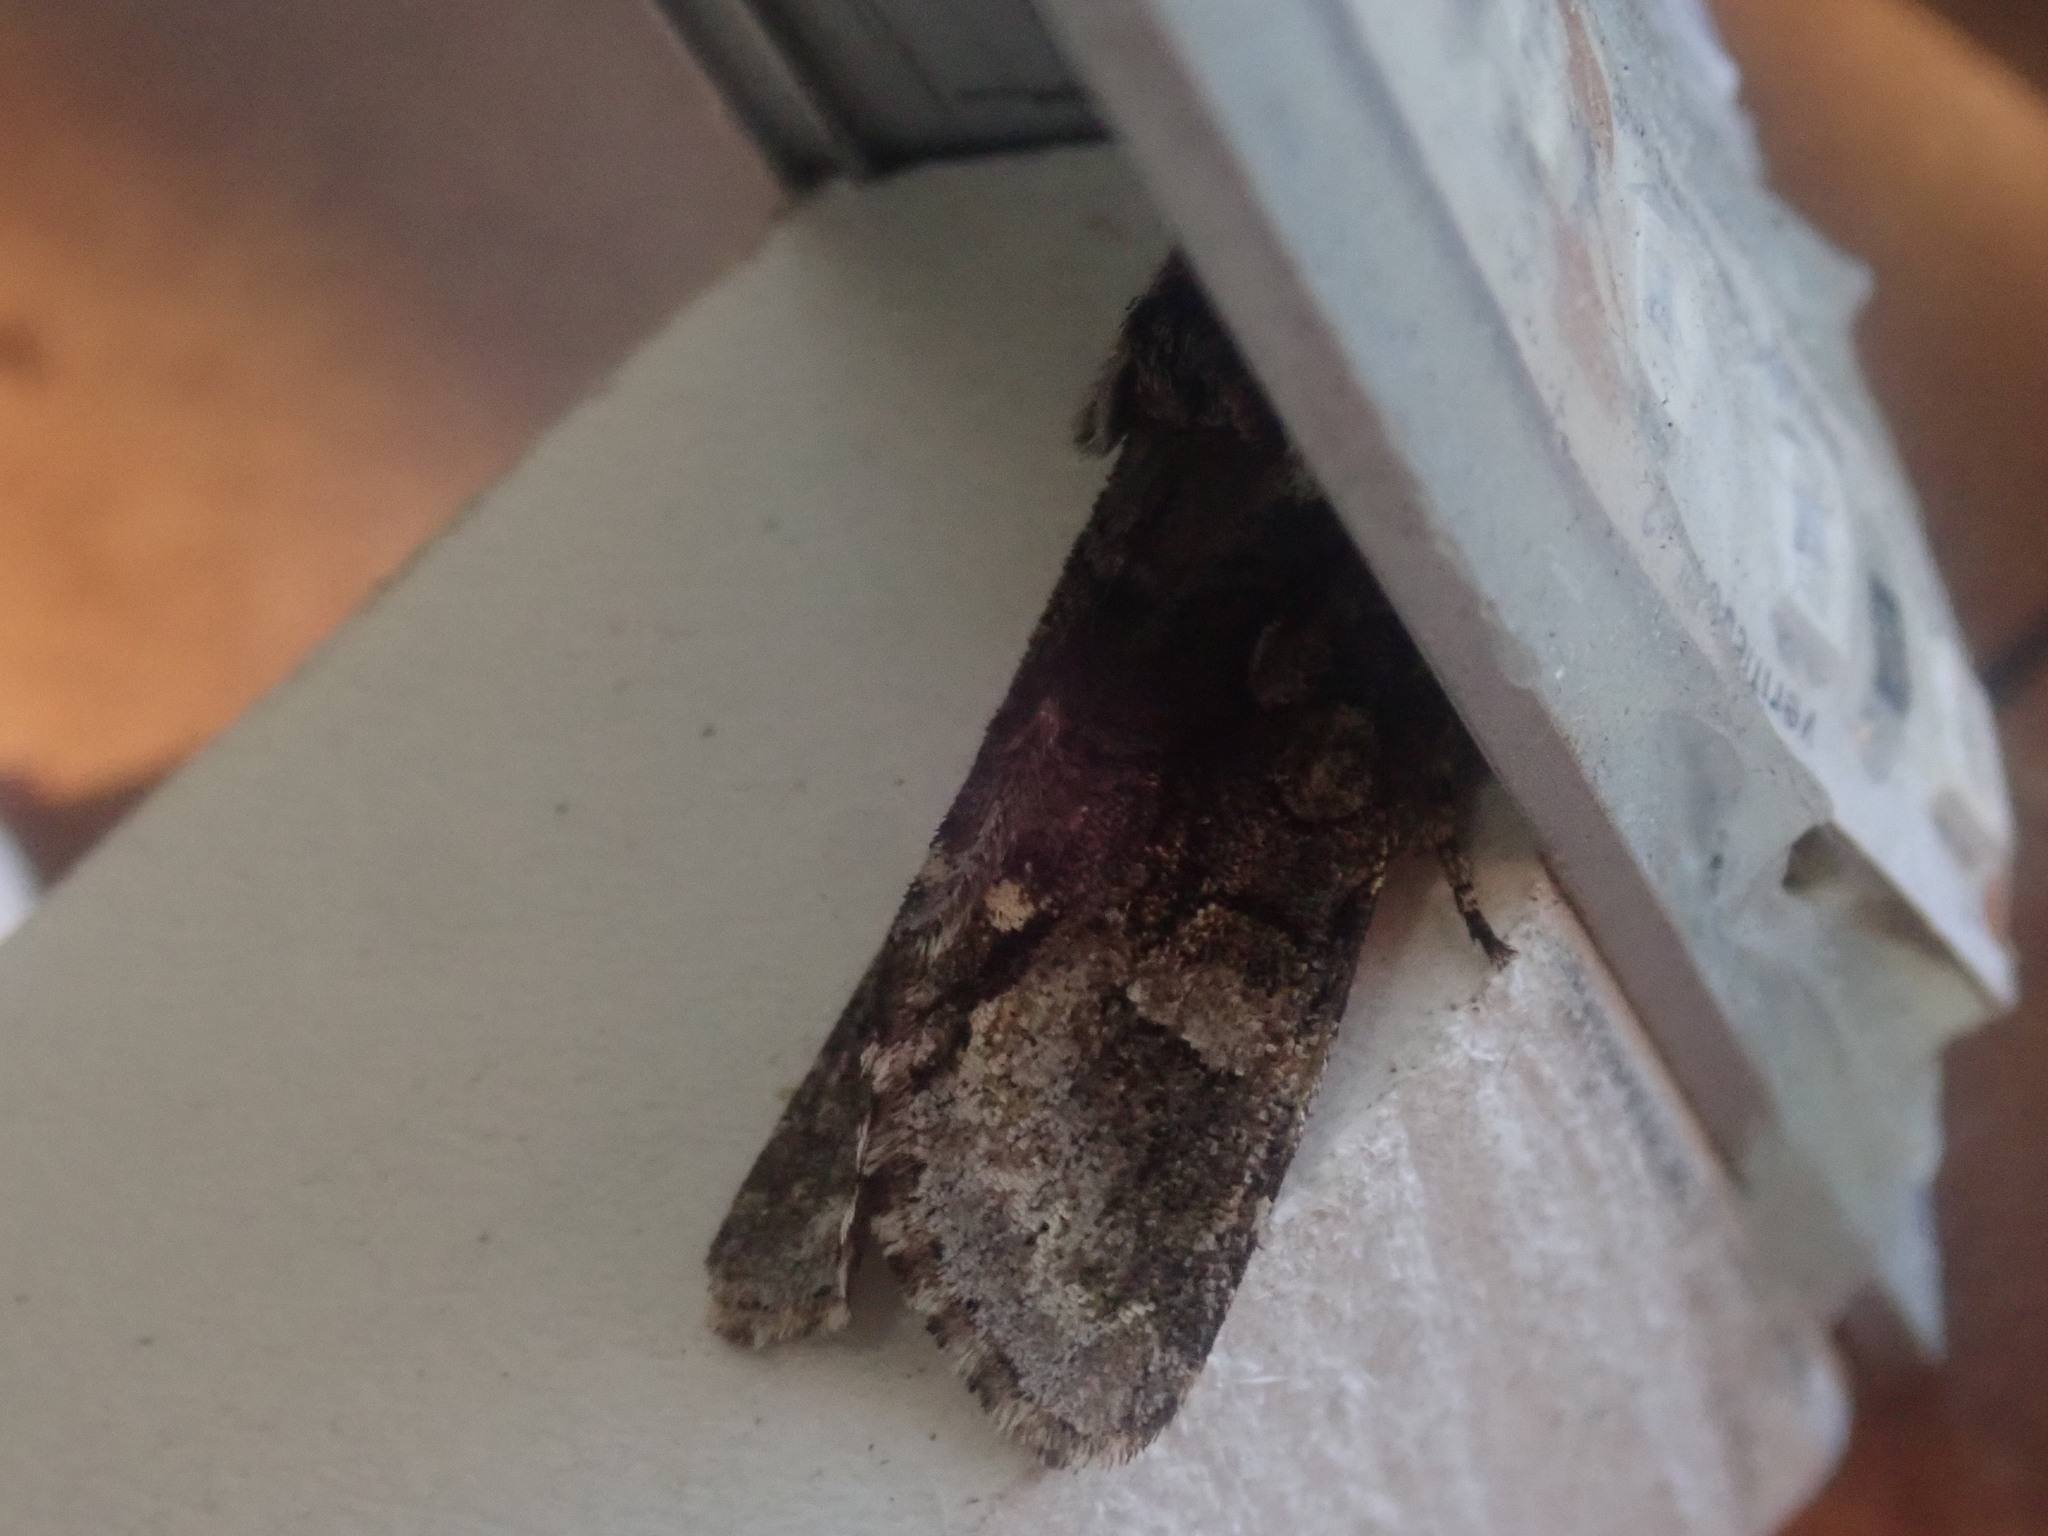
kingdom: Animalia
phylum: Arthropoda
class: Insecta
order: Lepidoptera
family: Noctuidae
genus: Psaphida
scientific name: Psaphida resumens
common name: Figure-eight sallow
